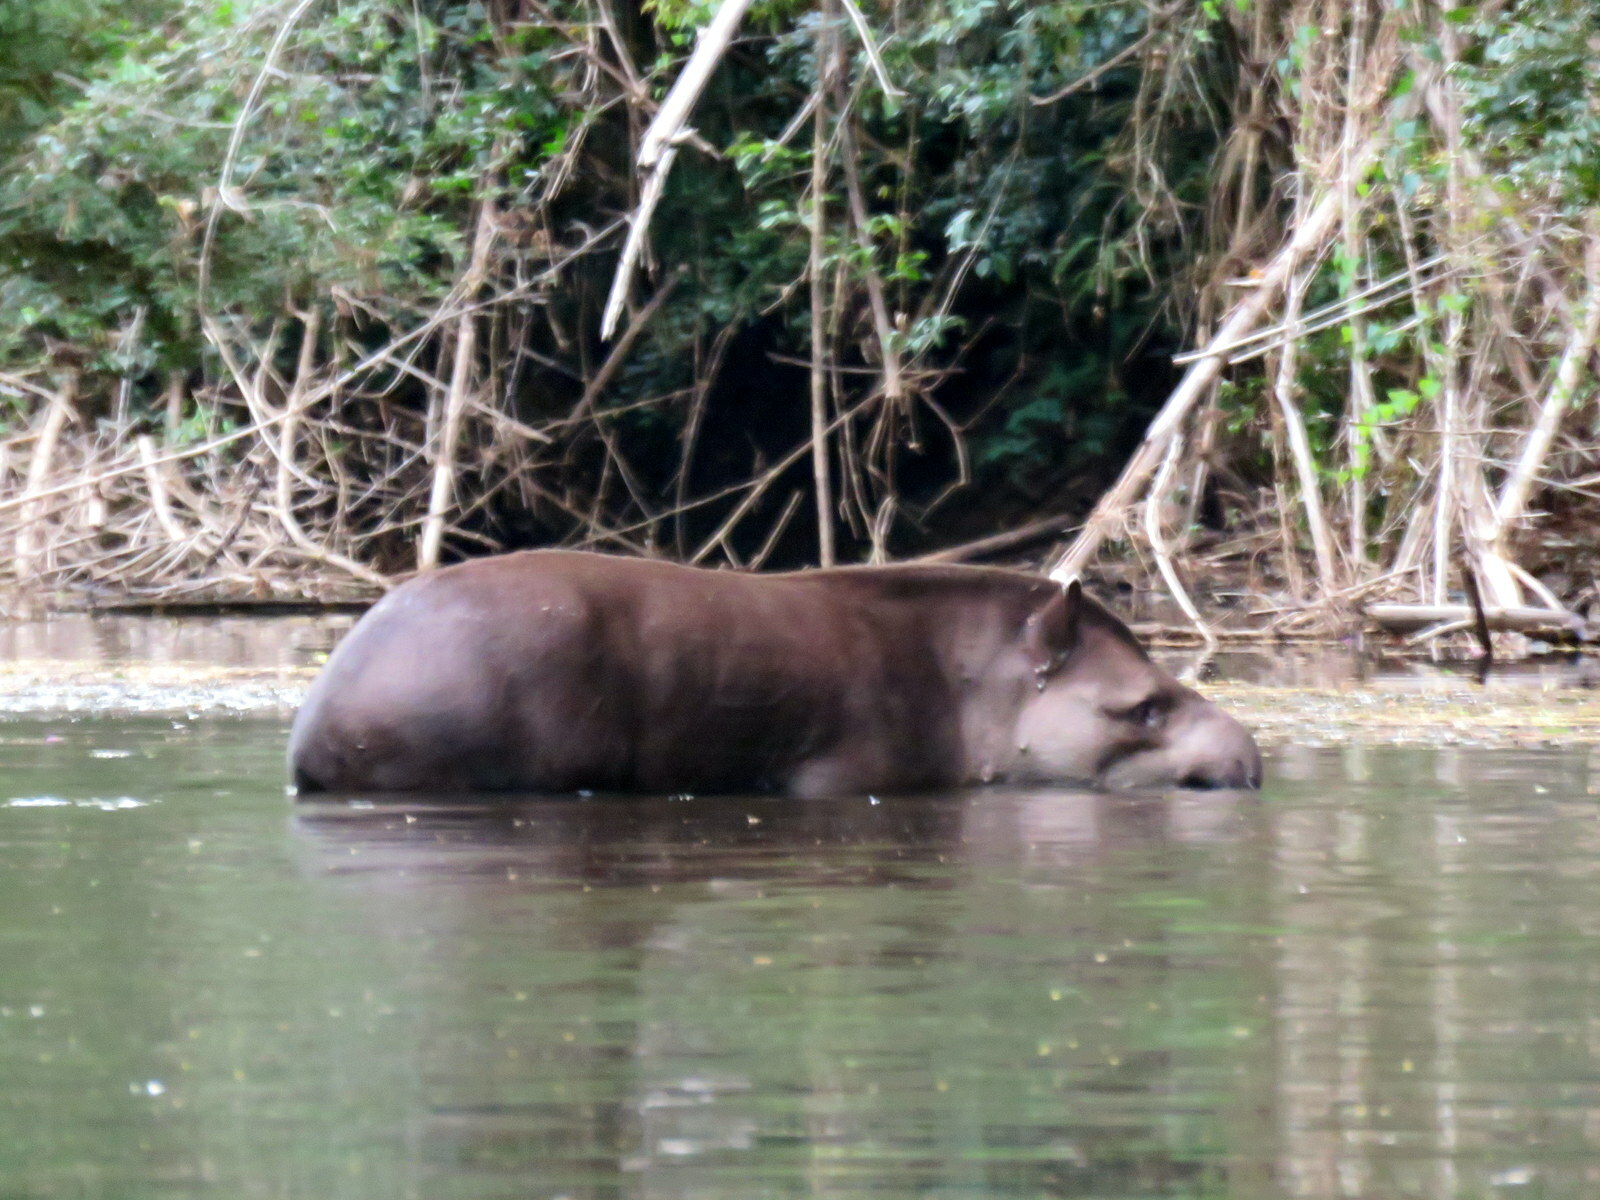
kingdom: Animalia
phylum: Chordata
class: Mammalia
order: Perissodactyla
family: Tapiridae
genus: Tapirus
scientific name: Tapirus terrestris
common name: Brazilian tapir
